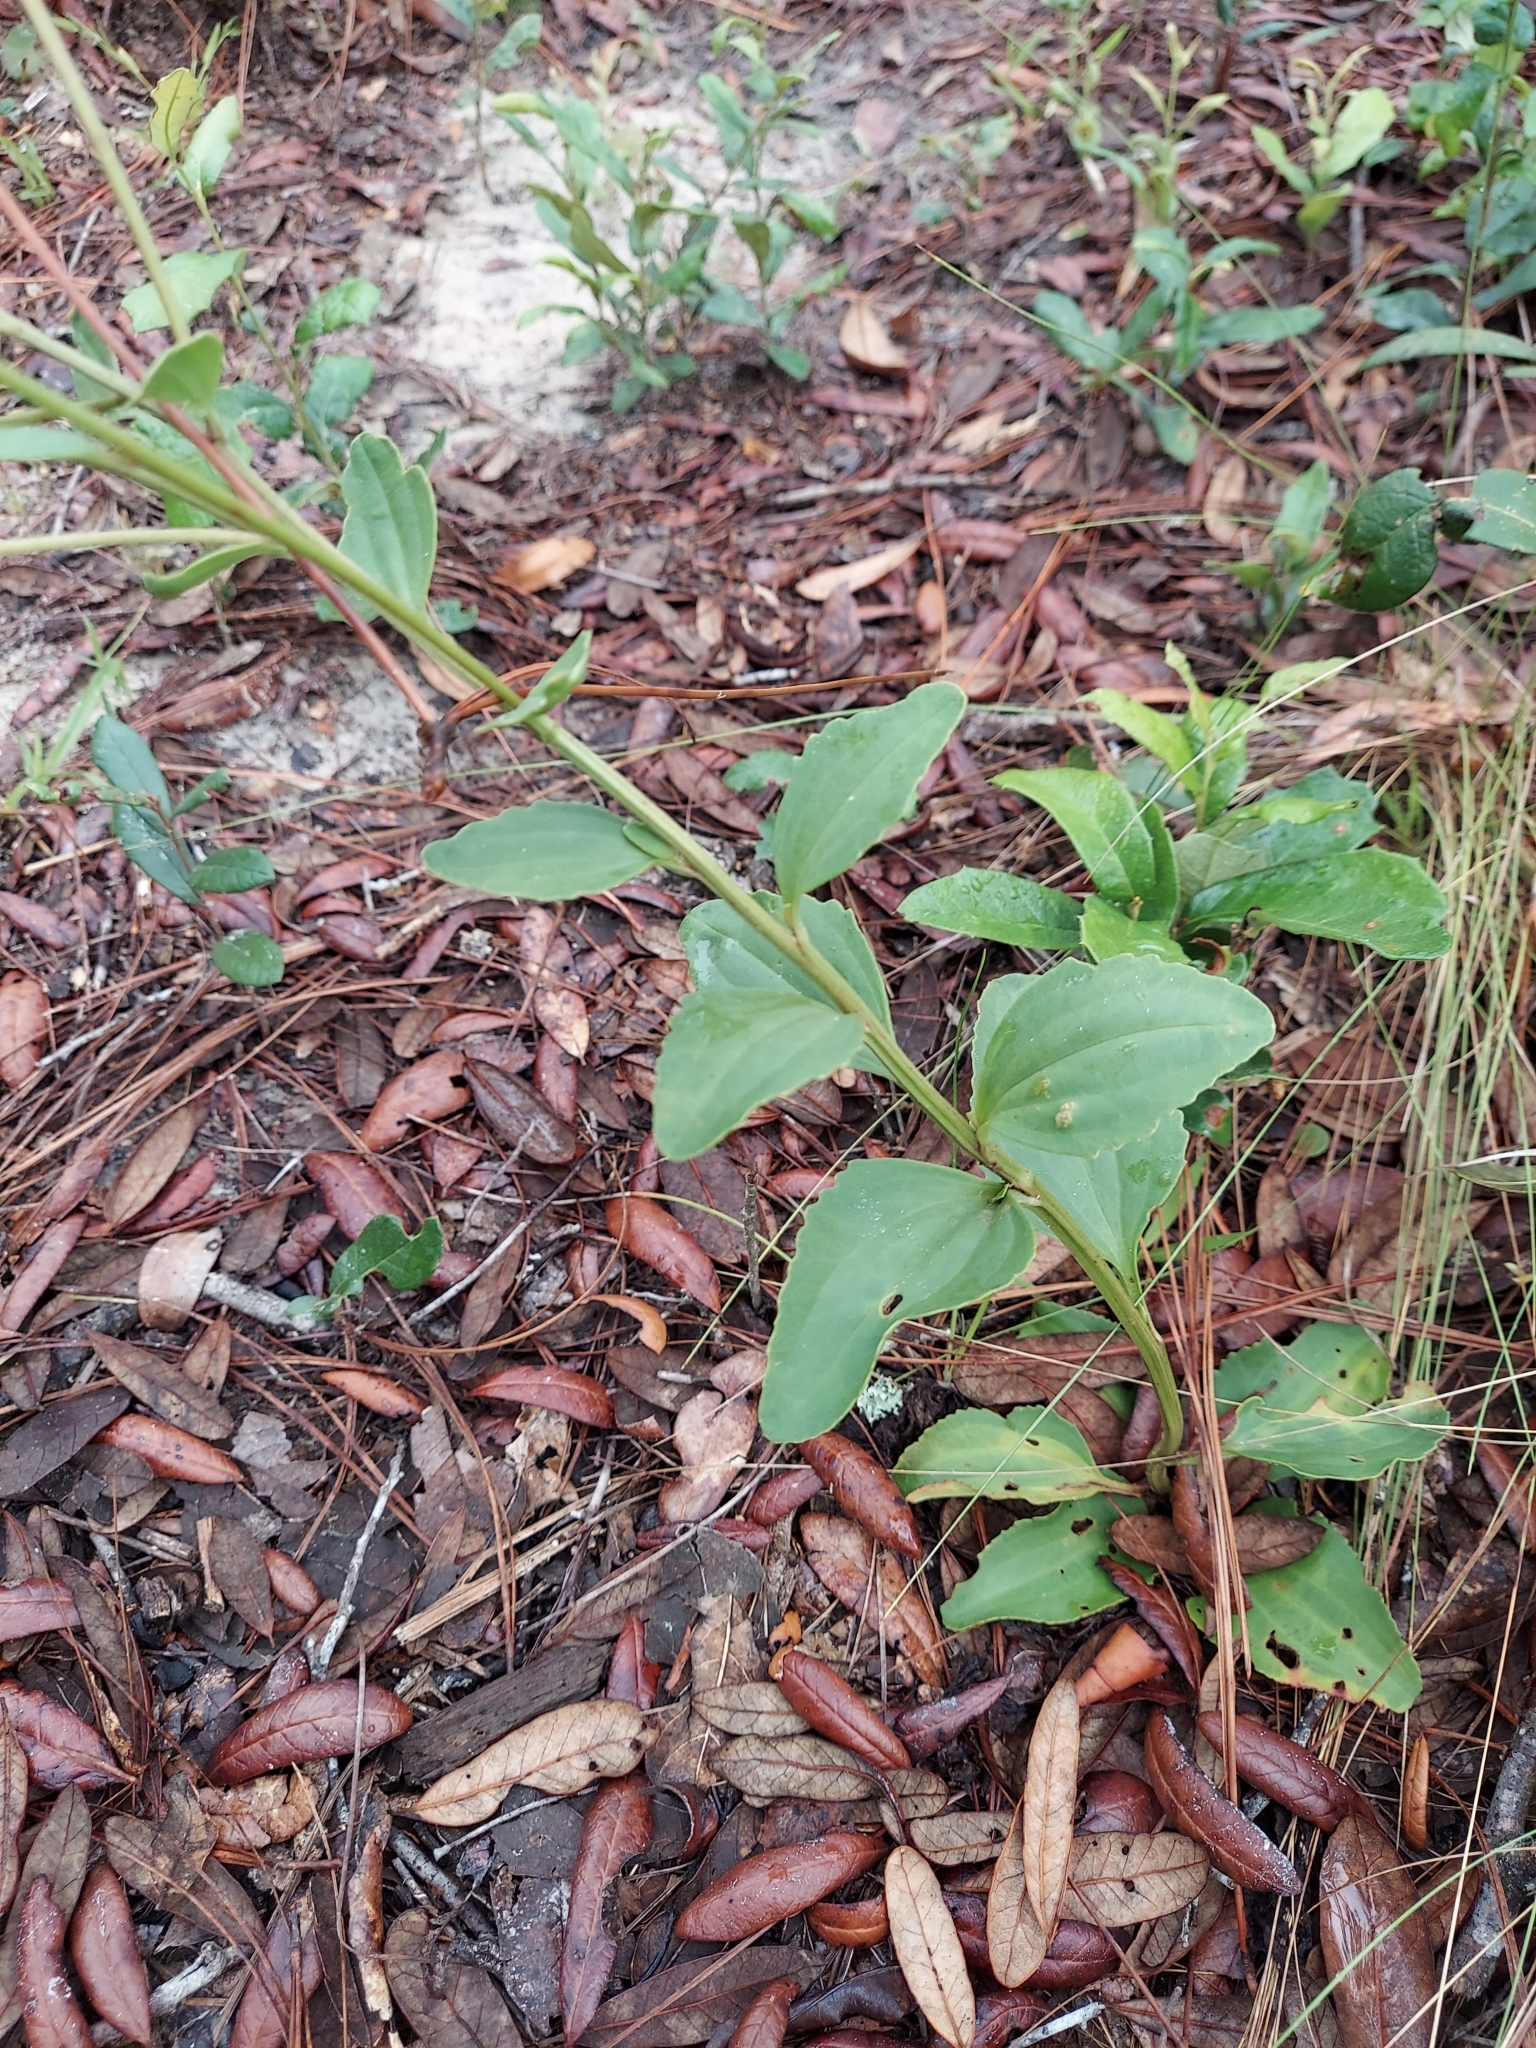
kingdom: Plantae
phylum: Tracheophyta
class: Magnoliopsida
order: Asterales
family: Asteraceae
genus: Arnoglossum
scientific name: Arnoglossum floridanum
